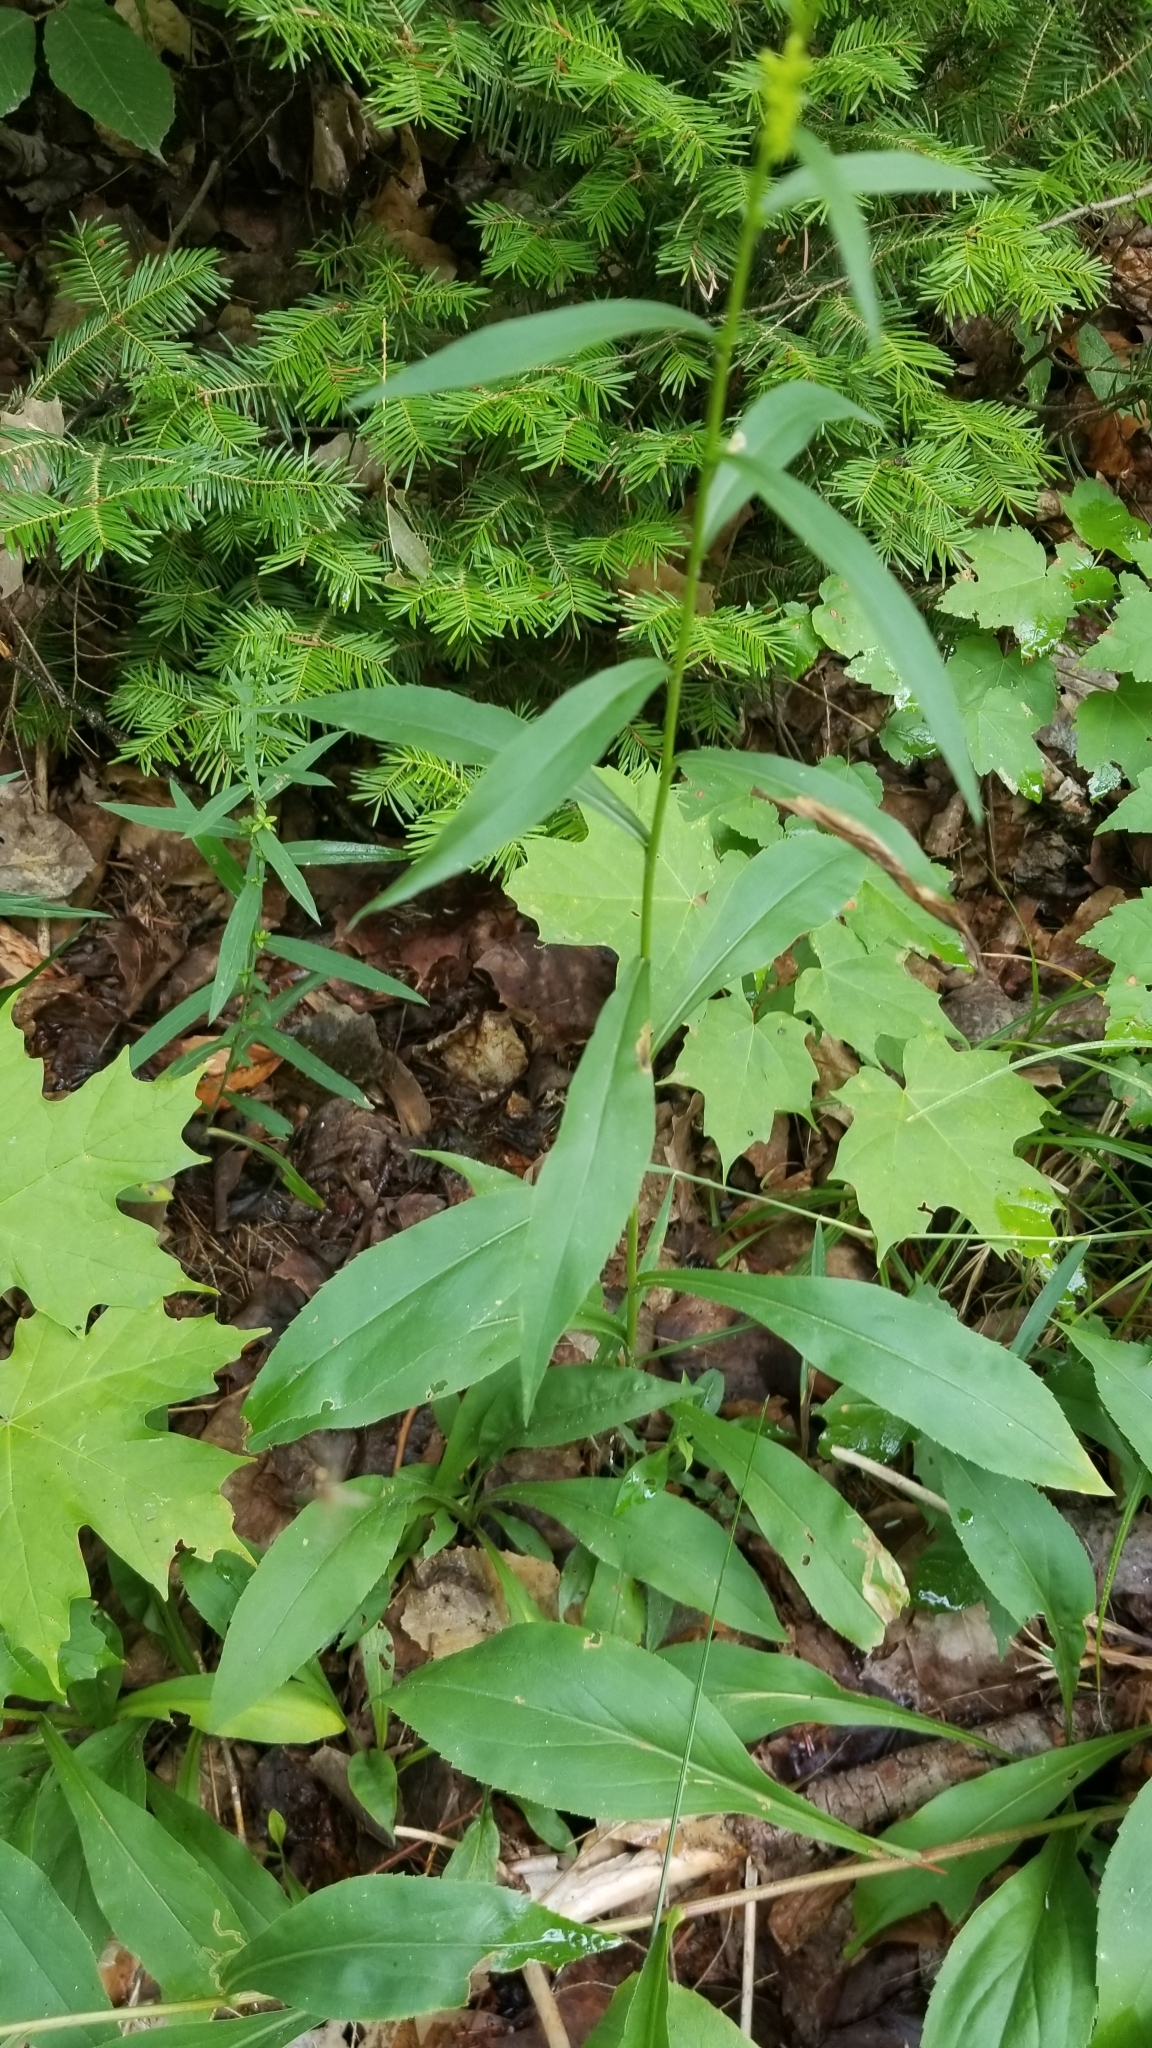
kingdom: Plantae
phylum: Tracheophyta
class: Magnoliopsida
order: Asterales
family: Asteraceae
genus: Solidago
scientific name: Solidago juncea
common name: Early goldenrod
